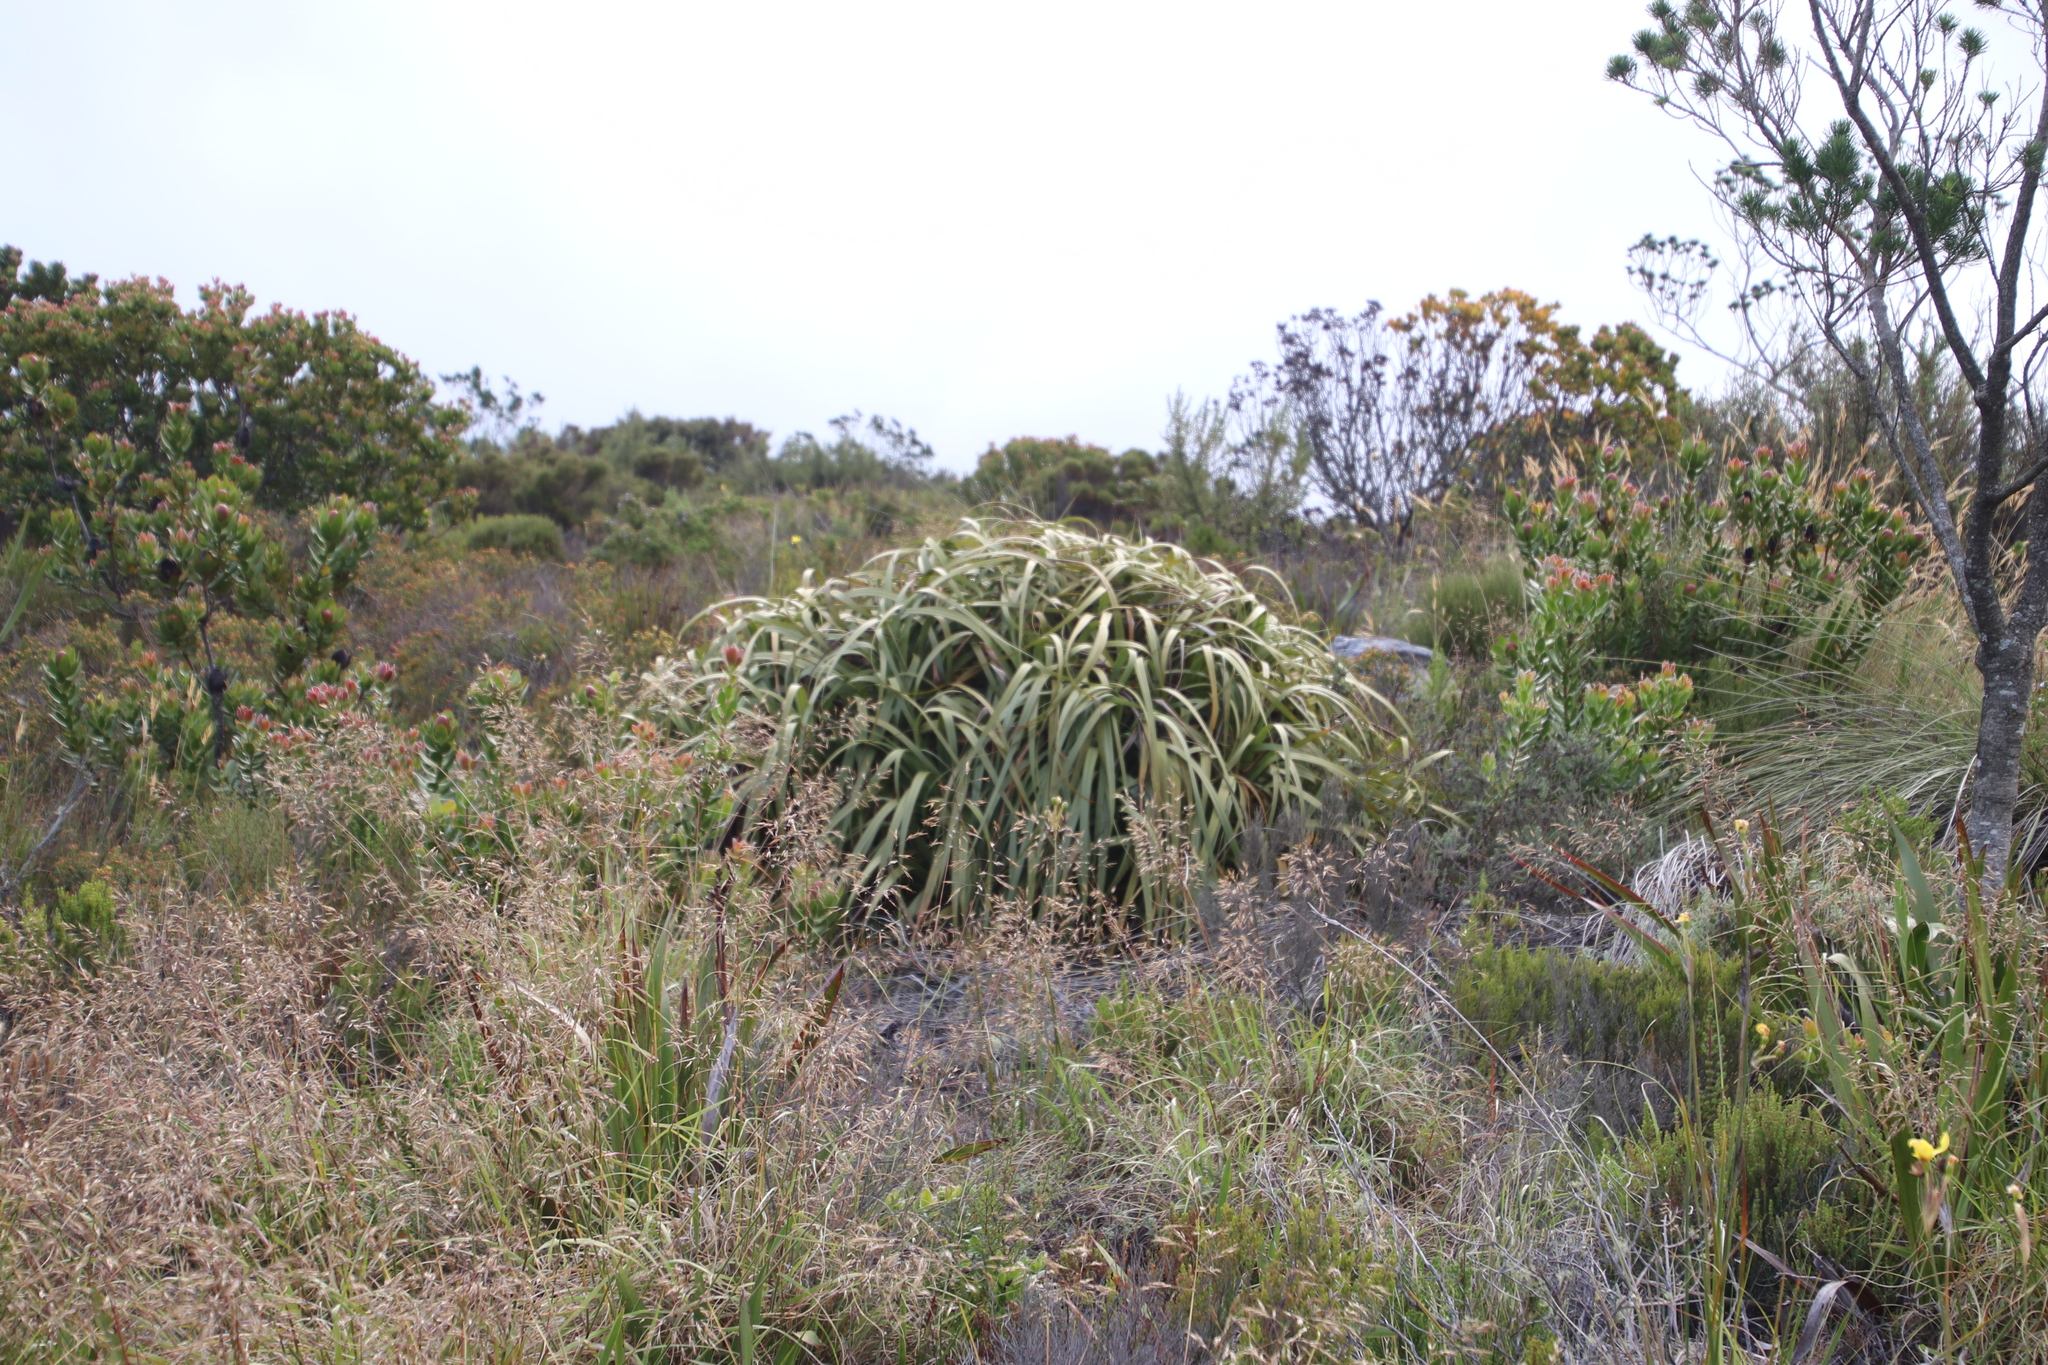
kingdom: Plantae
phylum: Tracheophyta
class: Liliopsida
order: Poales
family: Cyperaceae
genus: Tetraria
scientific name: Tetraria thermalis
